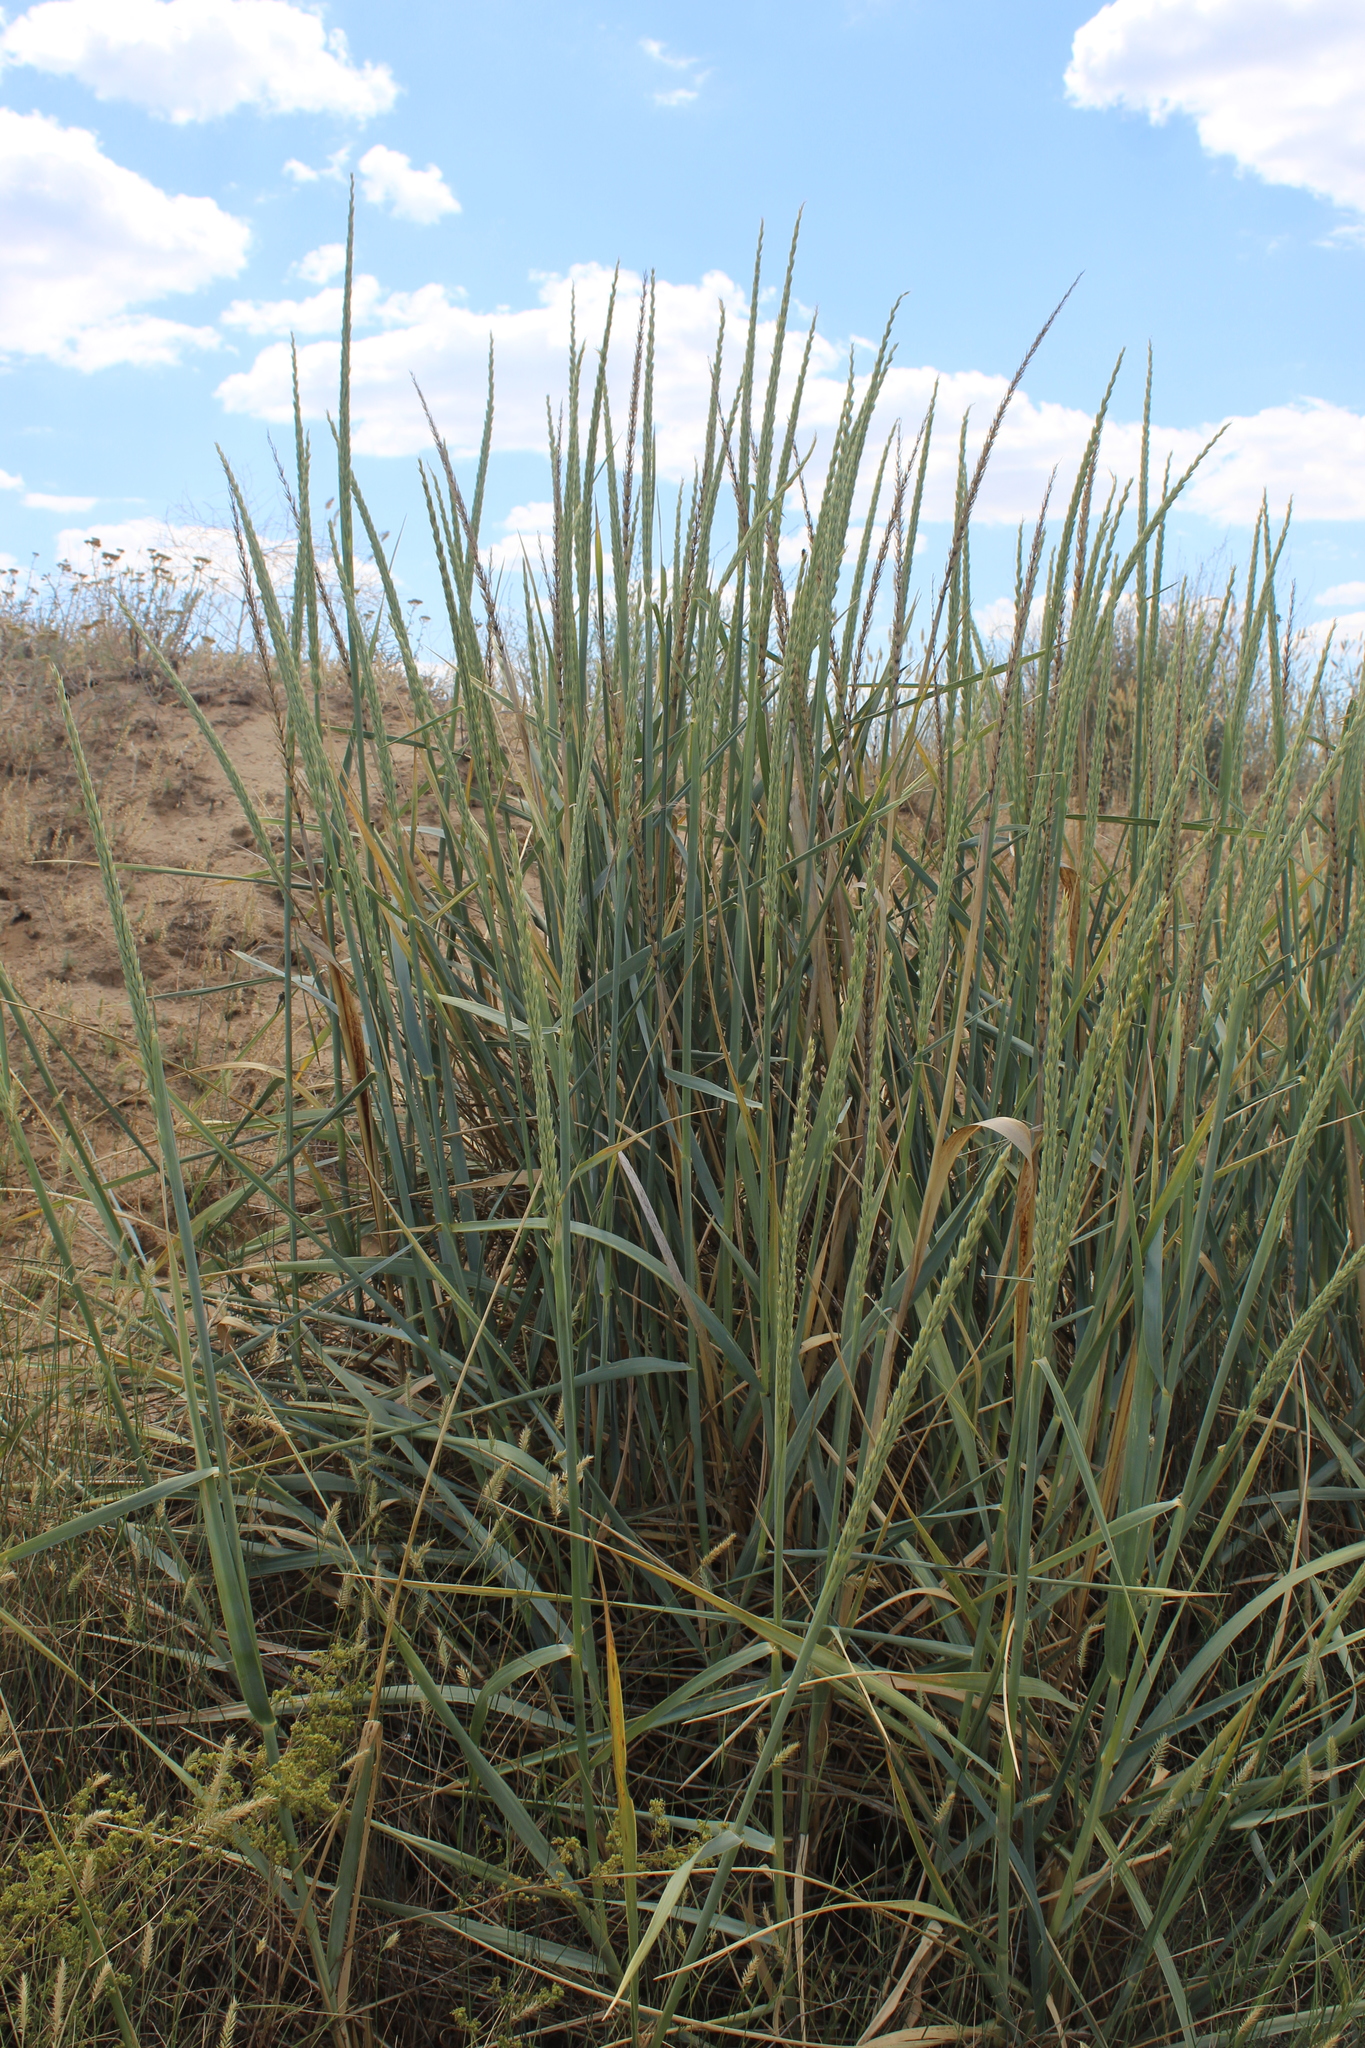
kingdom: Plantae
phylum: Tracheophyta
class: Liliopsida
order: Poales
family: Poaceae
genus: Leymus
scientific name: Leymus racemosus
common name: Mammoth wildrye
